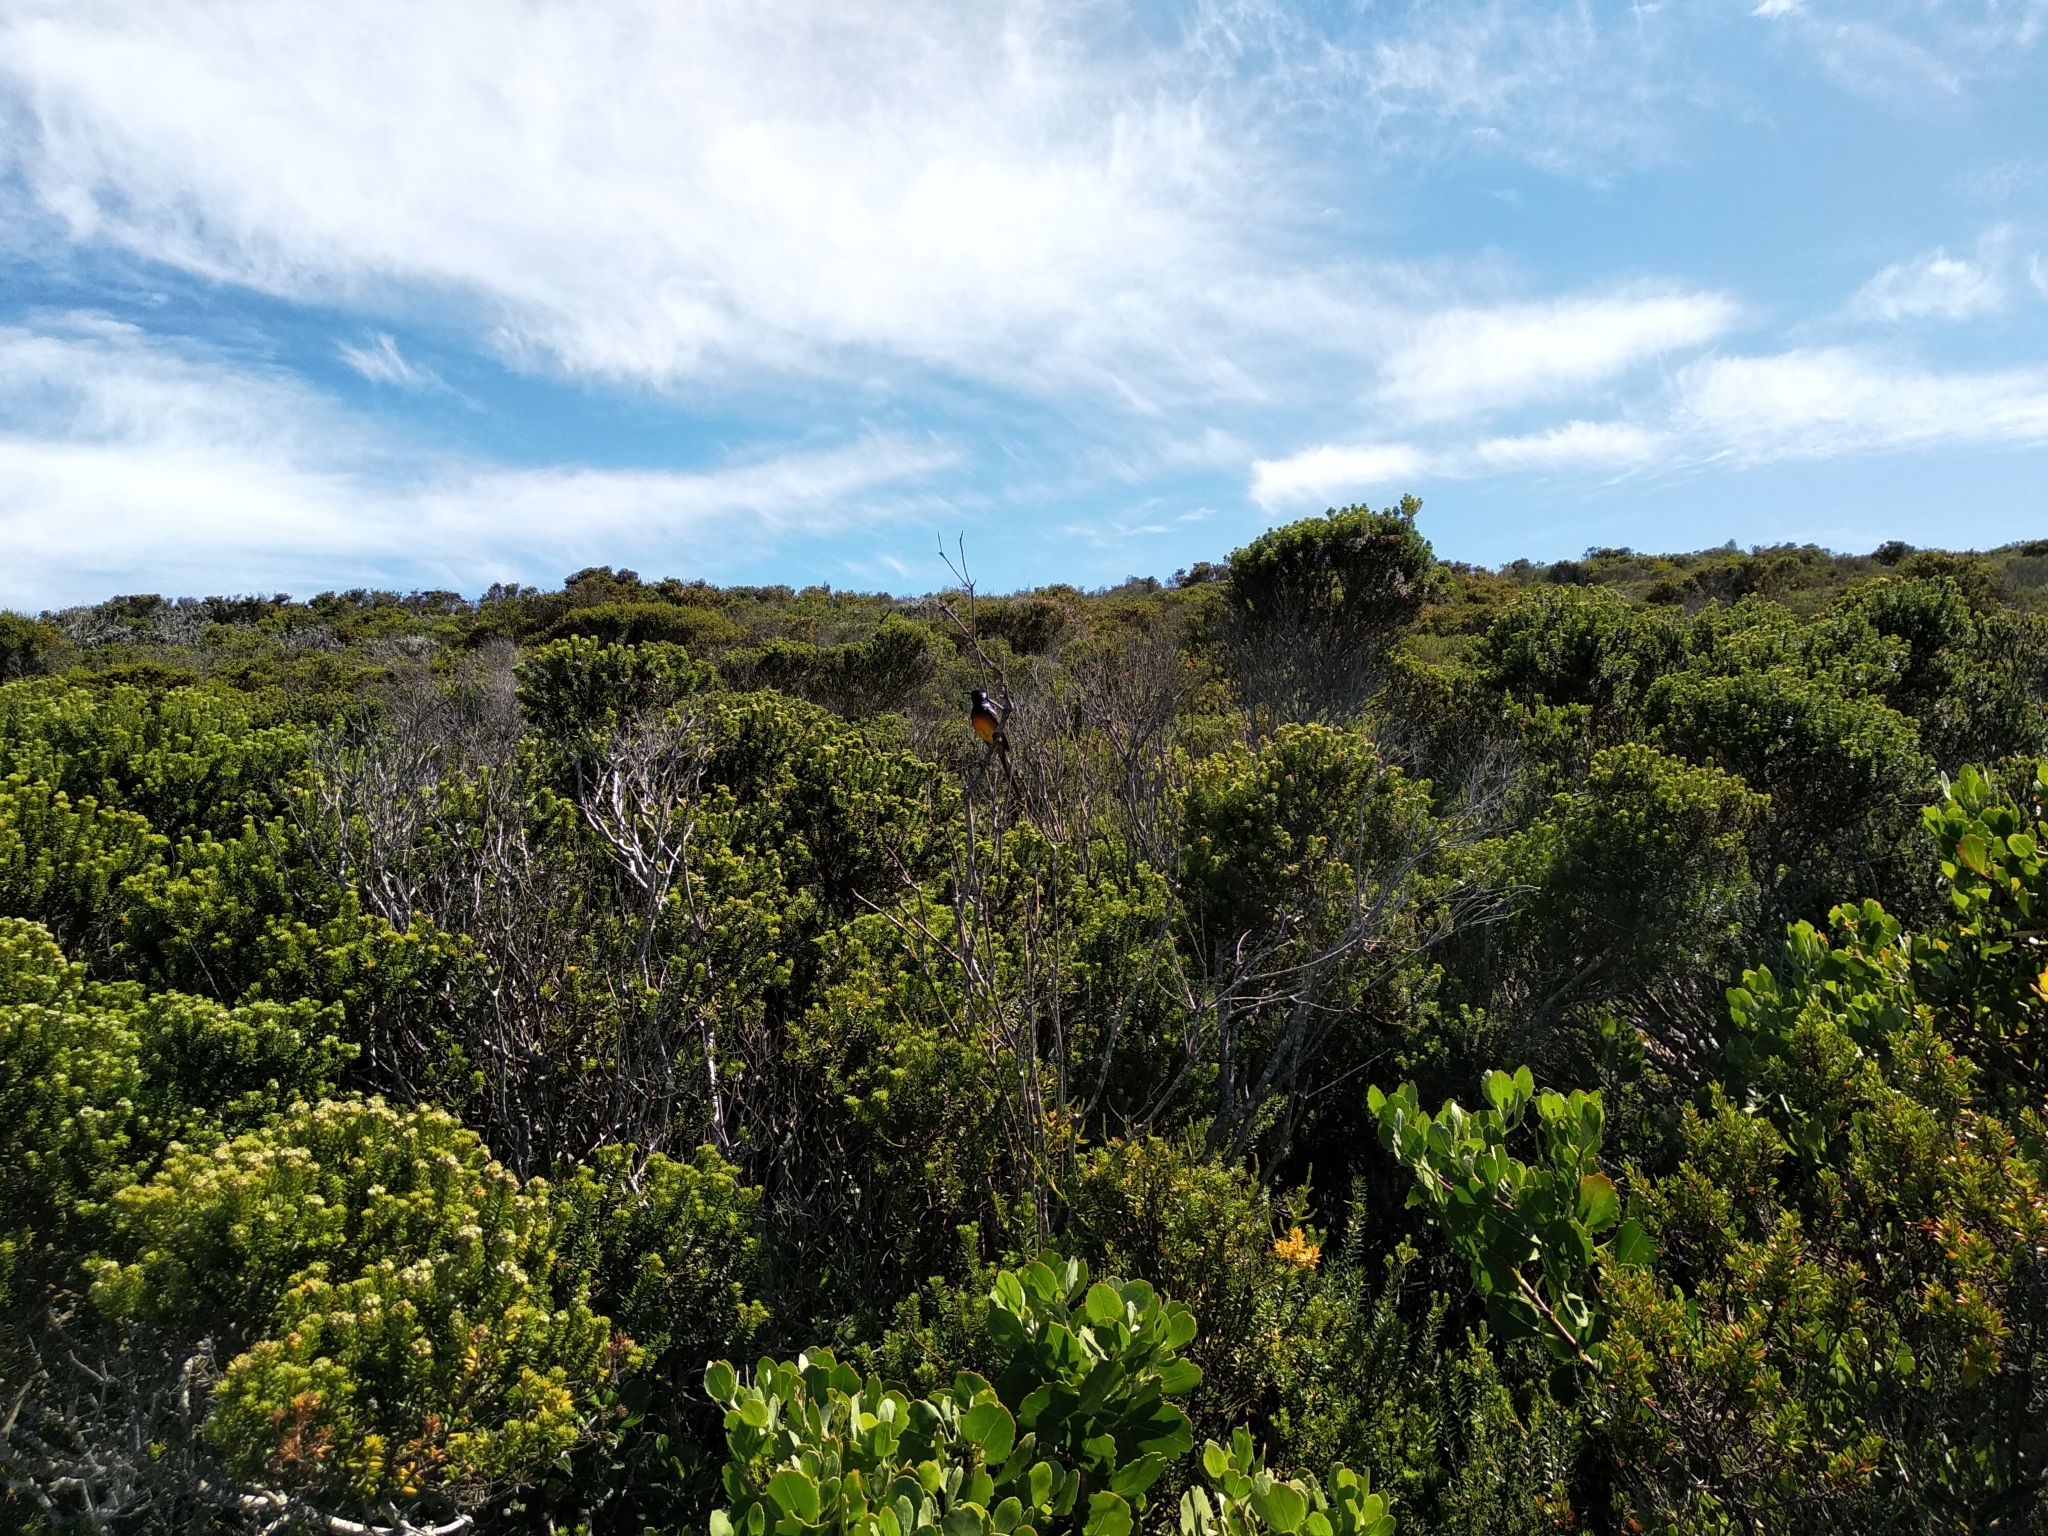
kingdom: Animalia
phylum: Chordata
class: Aves
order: Passeriformes
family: Nectariniidae
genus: Anthobaphes
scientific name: Anthobaphes violacea
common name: Orange-breasted sunbird
